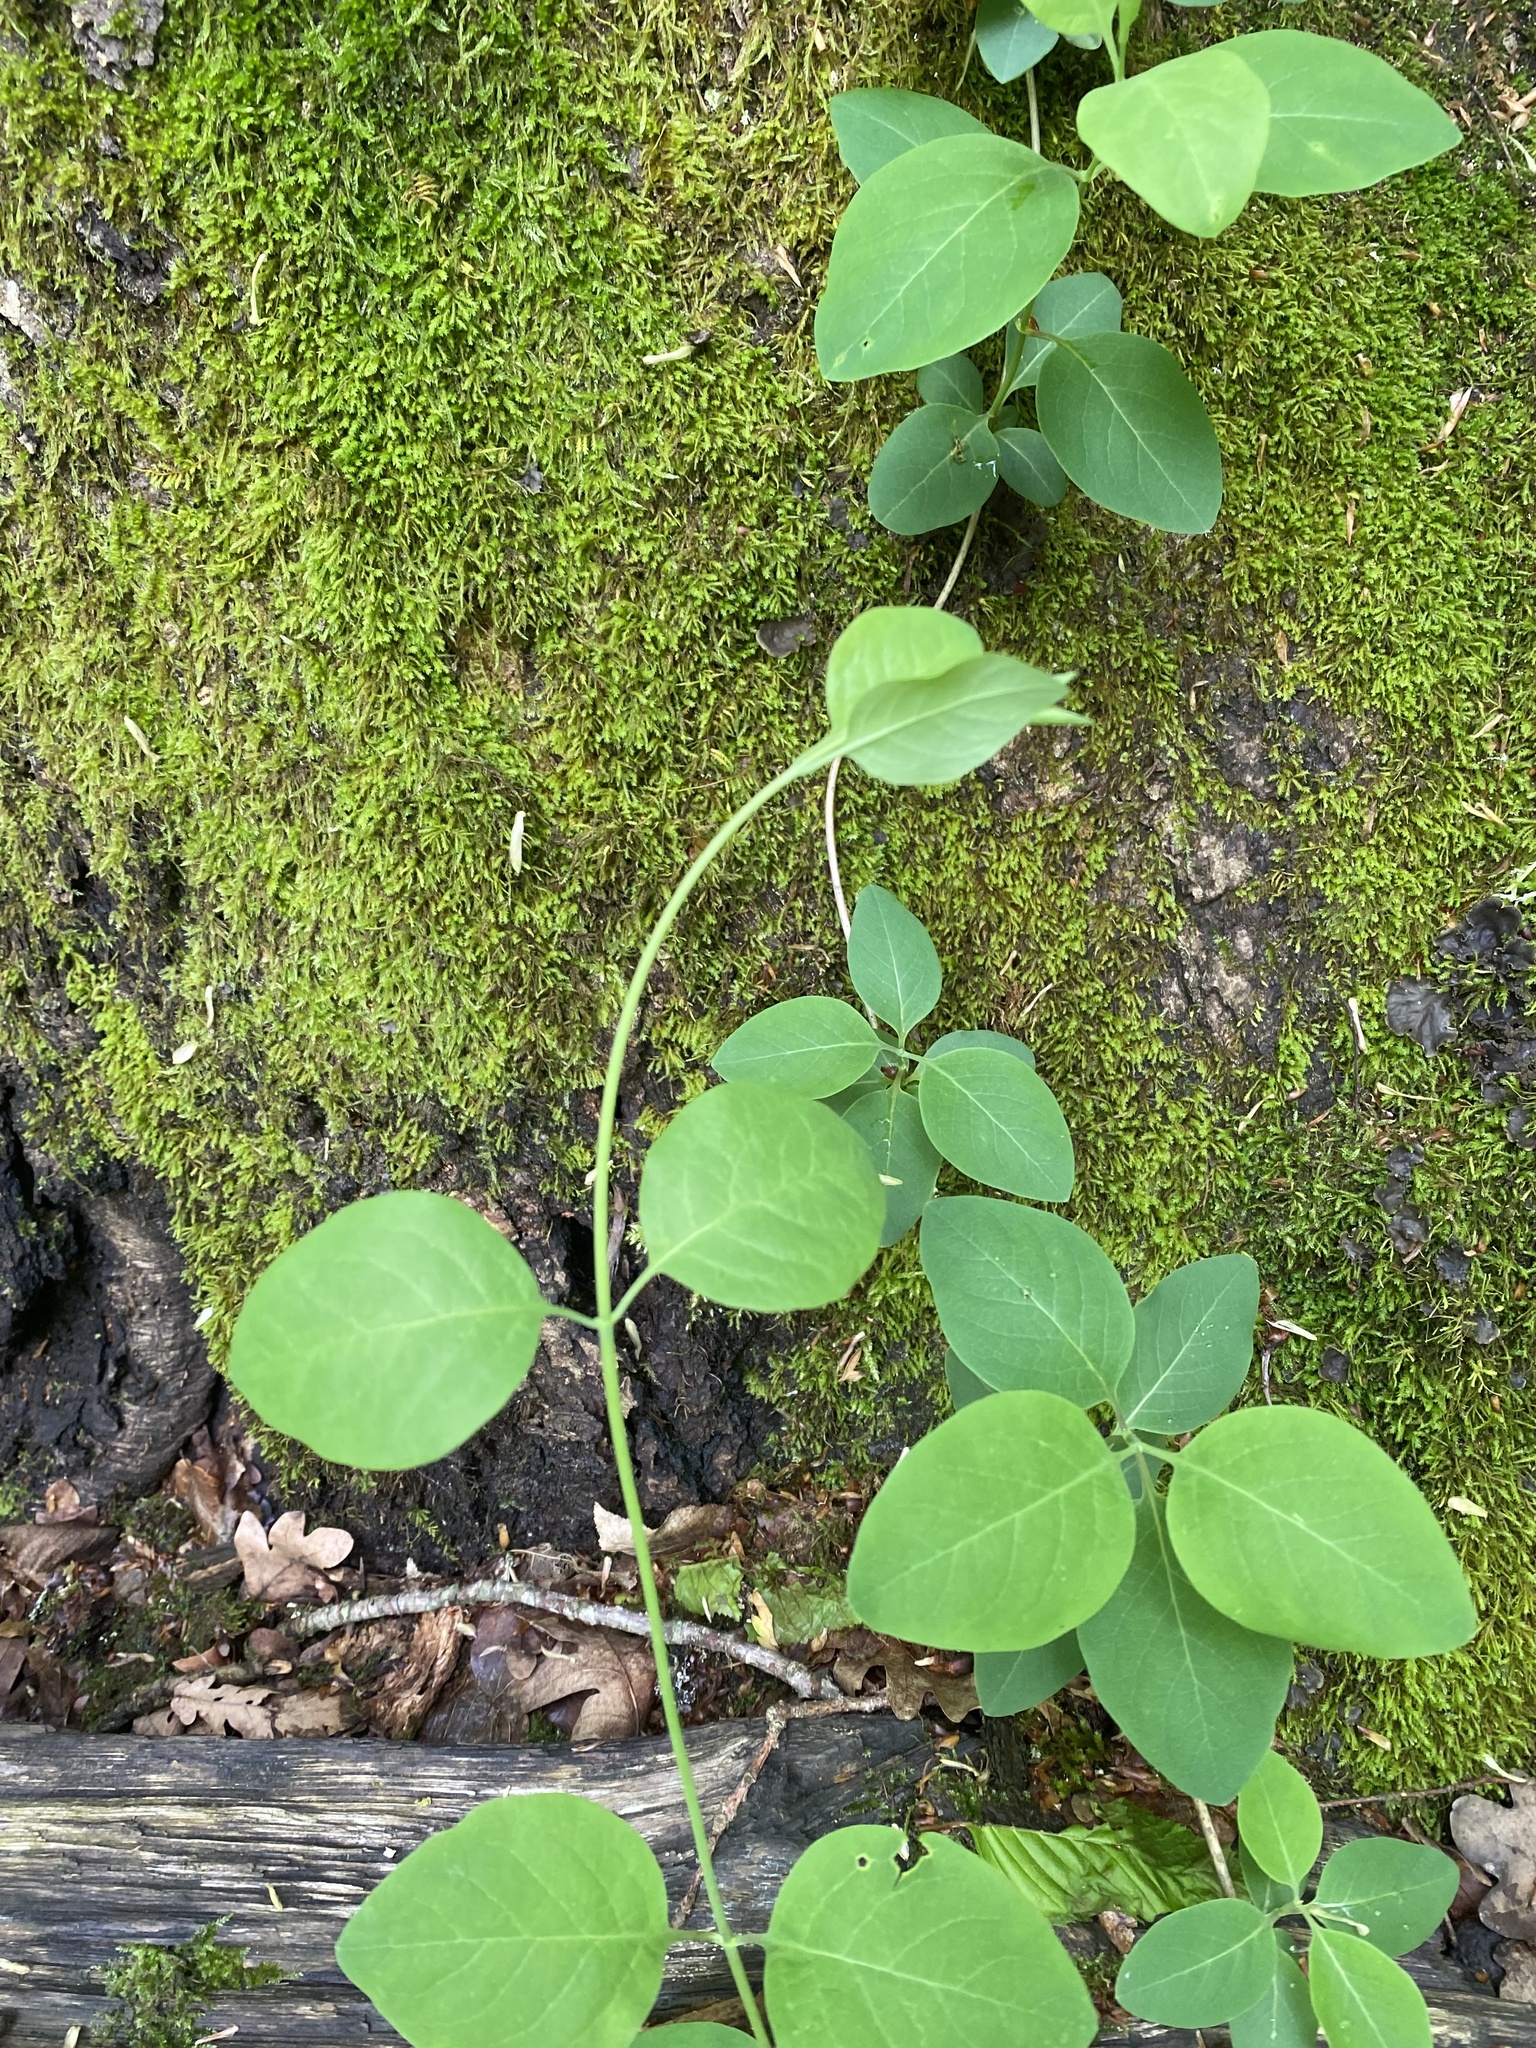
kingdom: Plantae
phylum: Tracheophyta
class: Magnoliopsida
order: Dipsacales
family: Caprifoliaceae
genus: Lonicera
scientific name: Lonicera caprifolium
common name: Perfoliate honeysuckle
